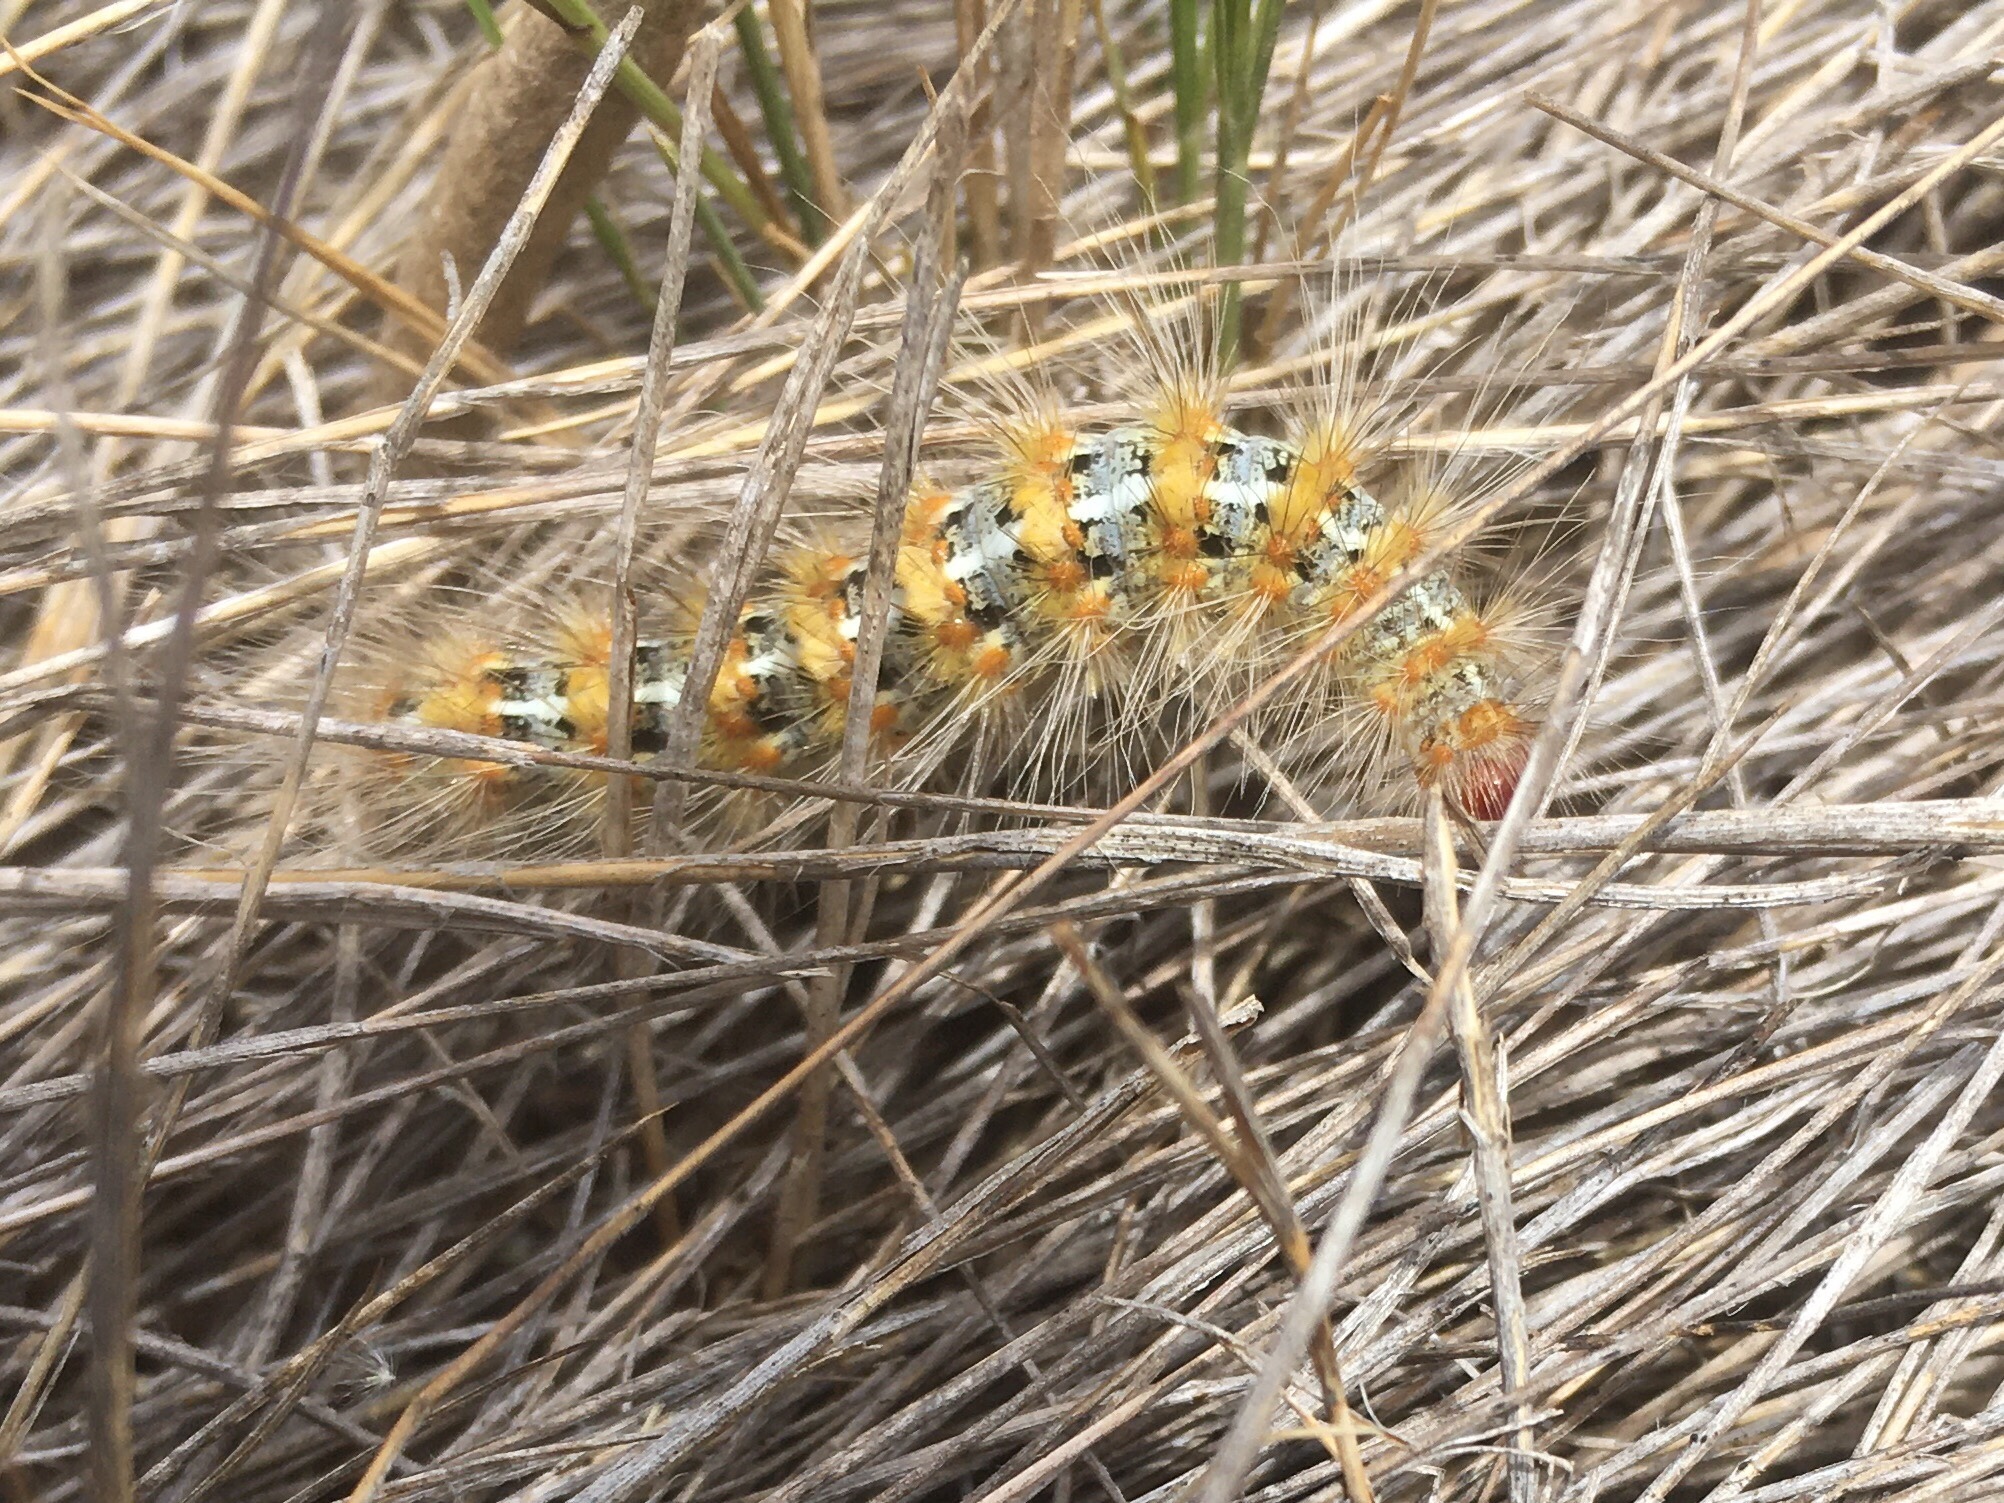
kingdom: Animalia
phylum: Arthropoda
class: Insecta
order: Lepidoptera
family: Erebidae
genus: Paracles
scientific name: Paracles deserticola
